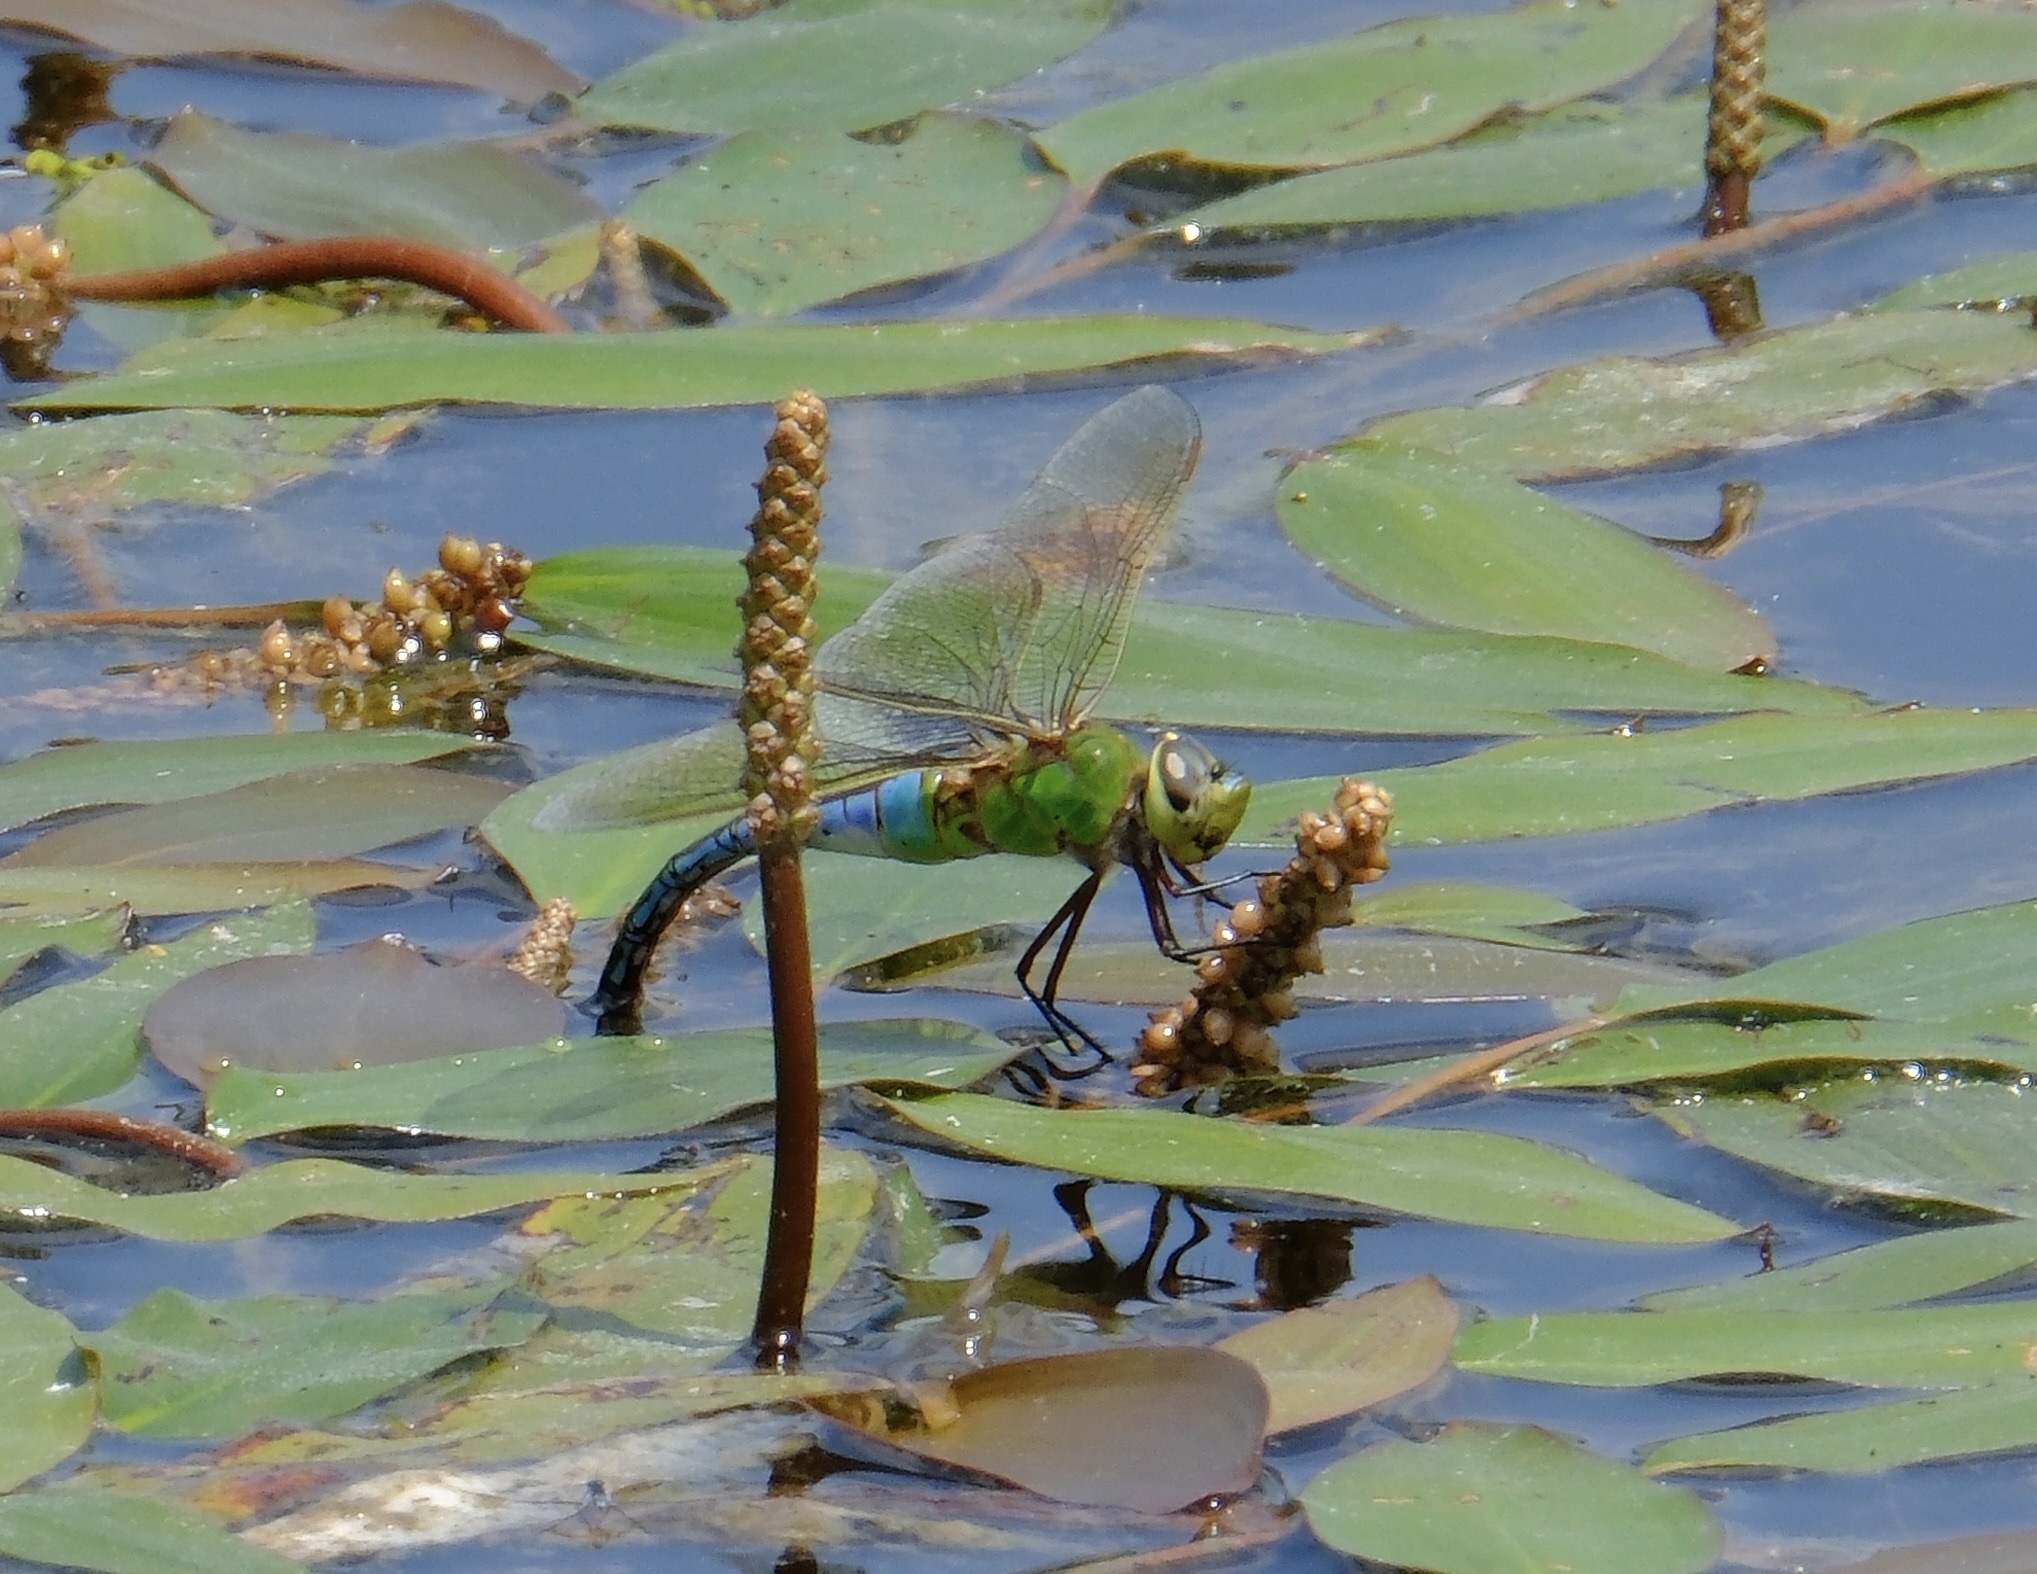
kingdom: Animalia
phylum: Arthropoda
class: Insecta
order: Odonata
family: Aeshnidae
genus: Anax
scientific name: Anax junius
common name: Common green darner
